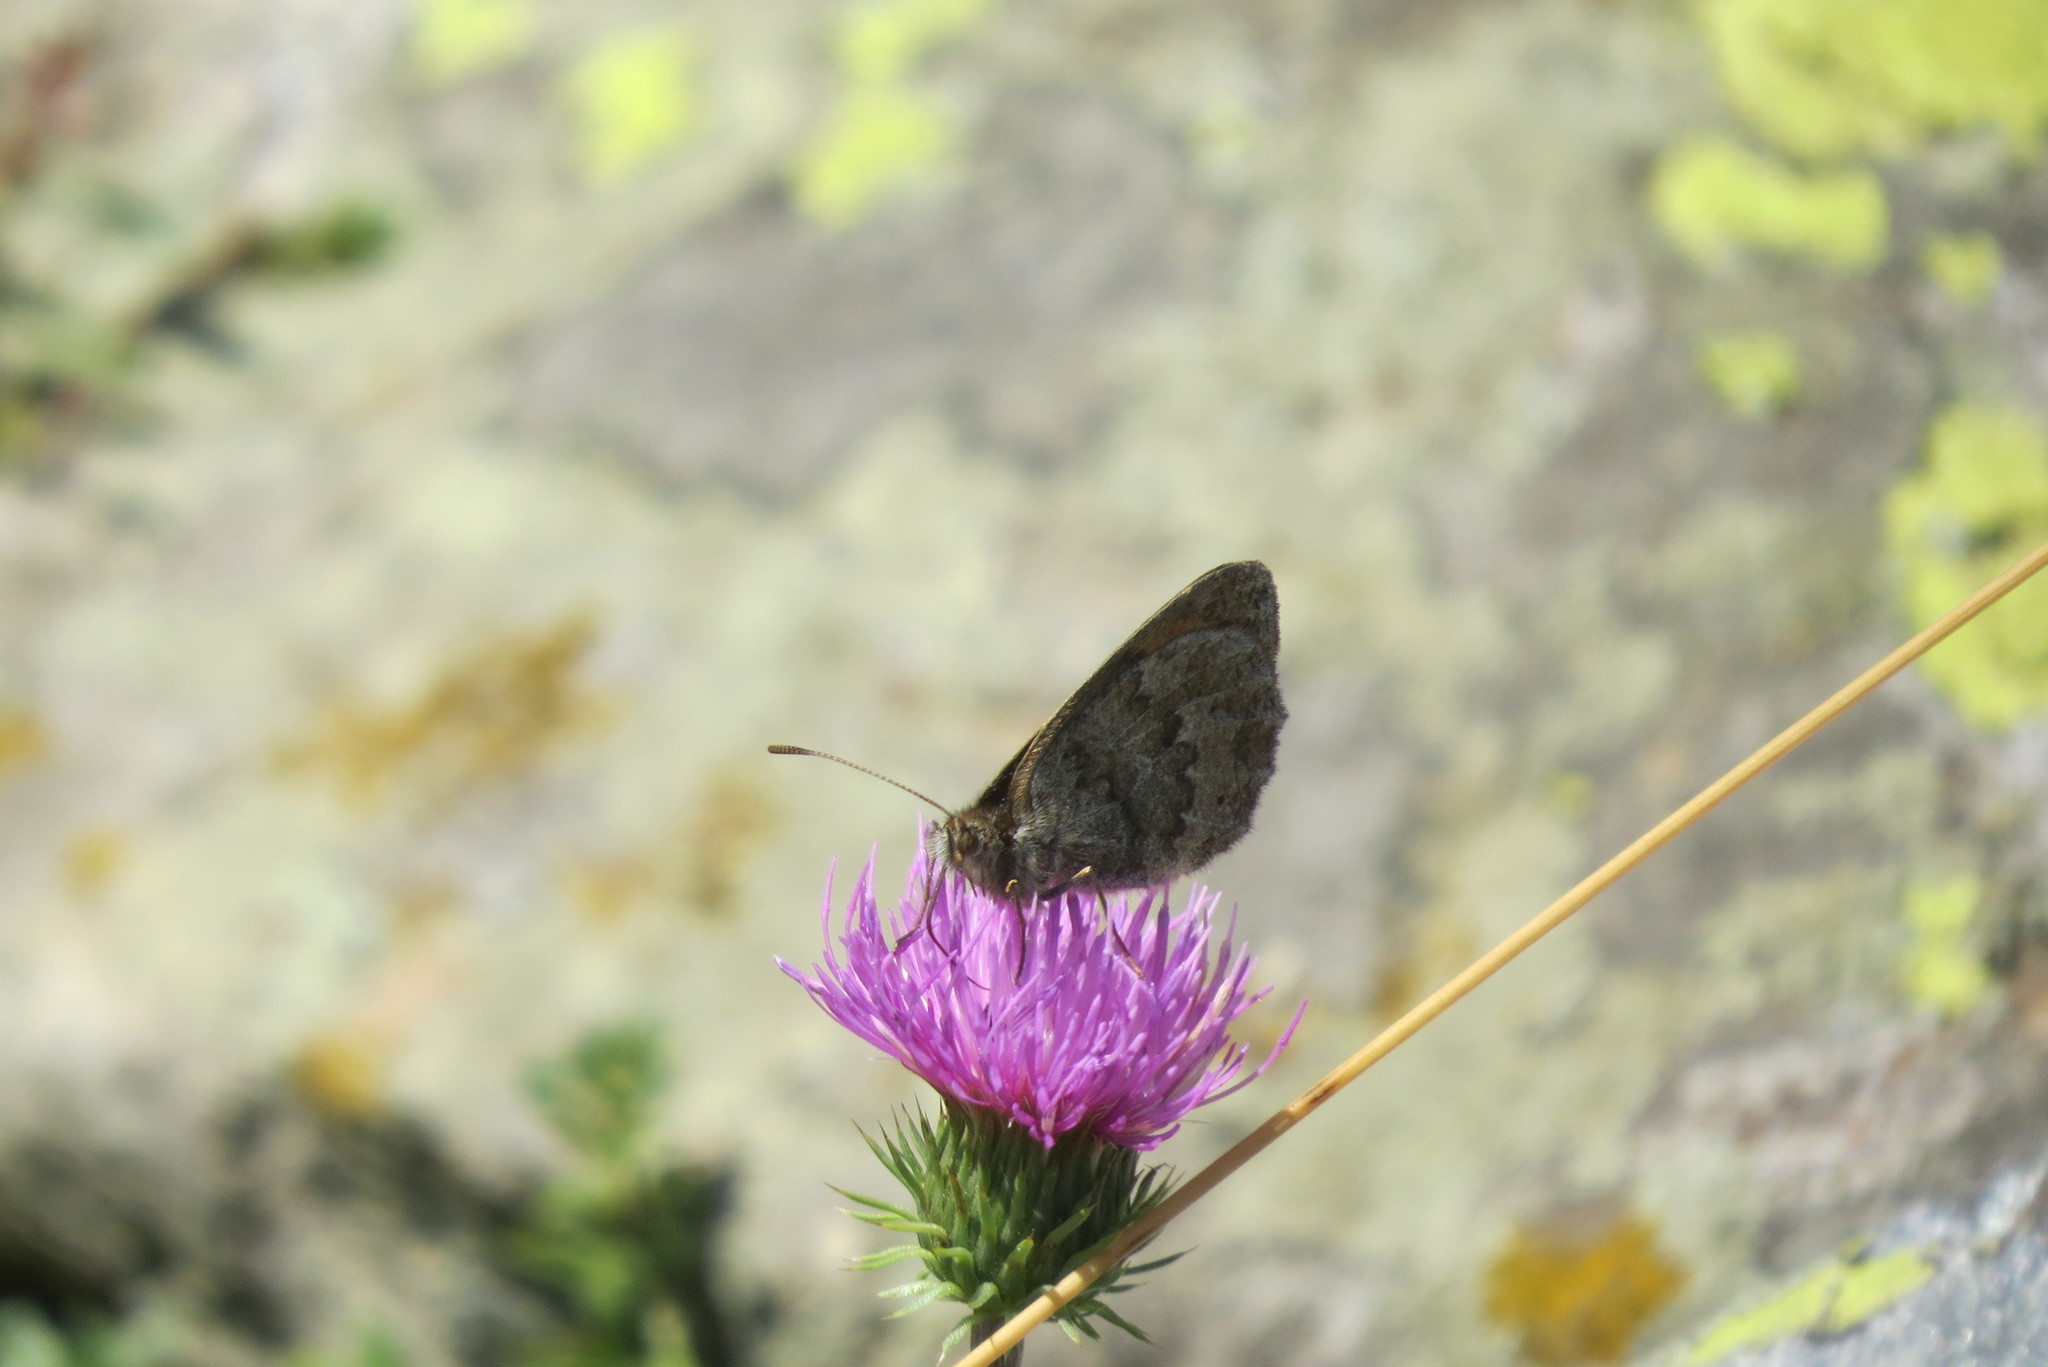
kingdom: Animalia
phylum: Arthropoda
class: Insecta
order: Lepidoptera
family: Nymphalidae
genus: Erebia
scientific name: Erebia cassioides
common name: Common brassy ringlet
